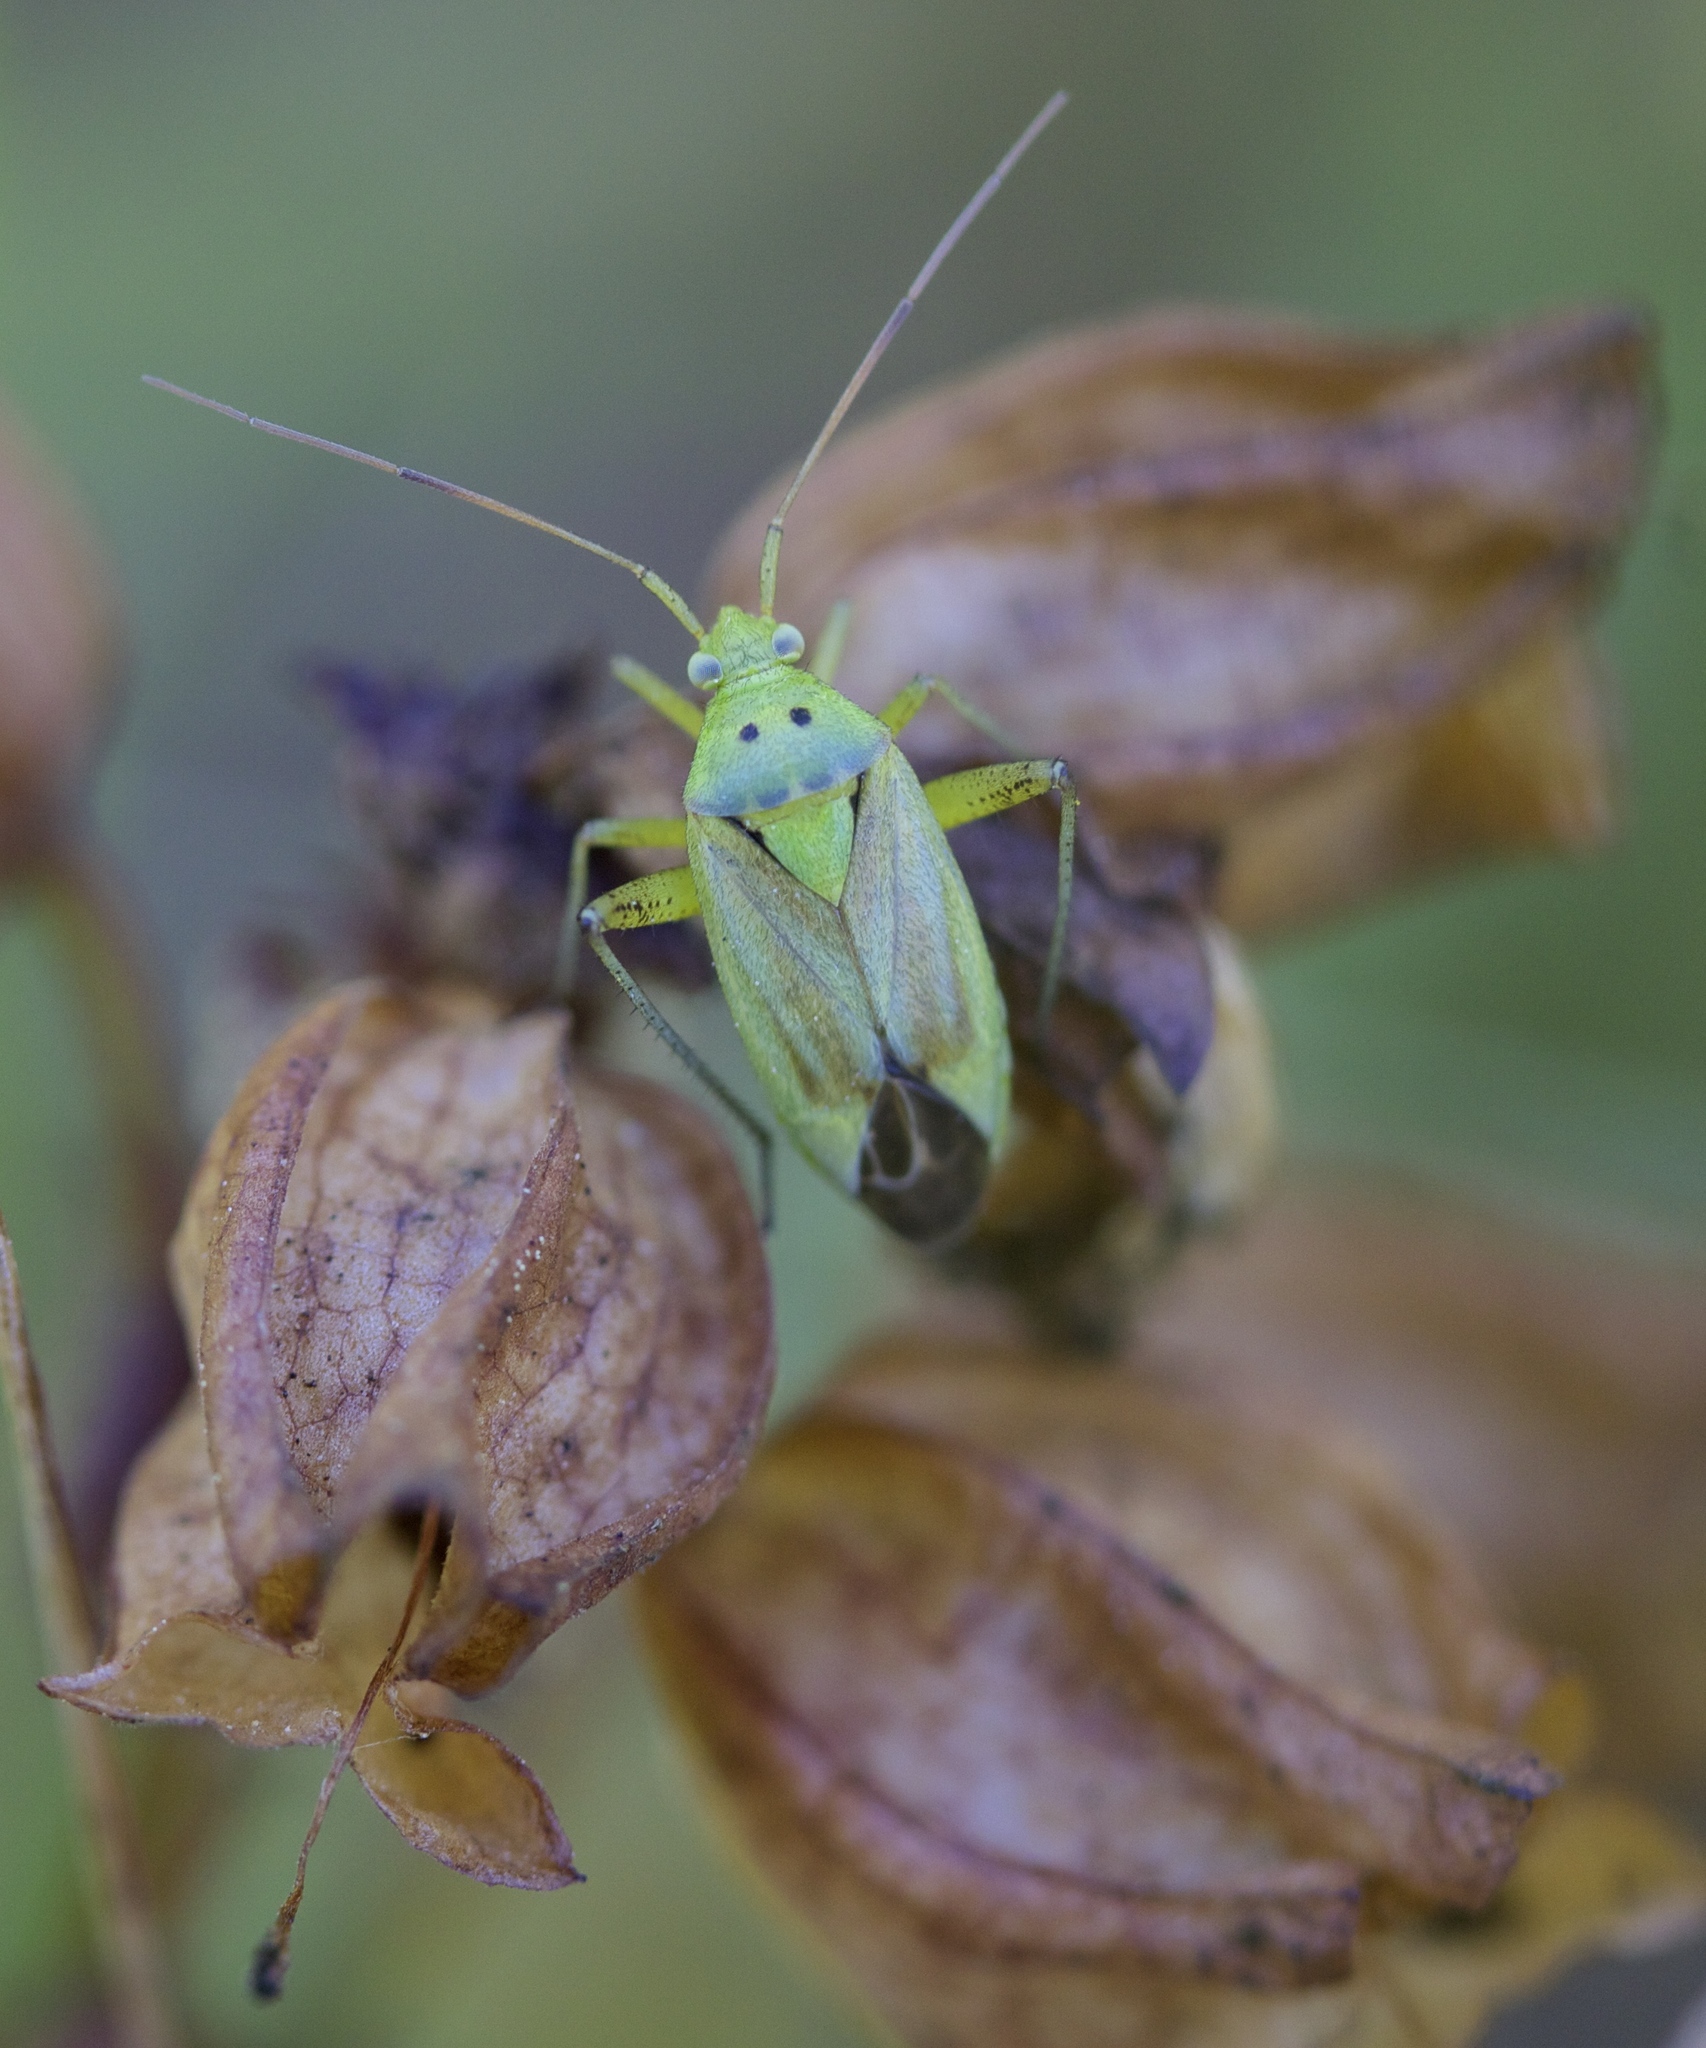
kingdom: Animalia
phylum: Arthropoda
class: Insecta
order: Hemiptera
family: Miridae
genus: Closterotomus
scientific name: Closterotomus norvegicus
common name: Plant bug
